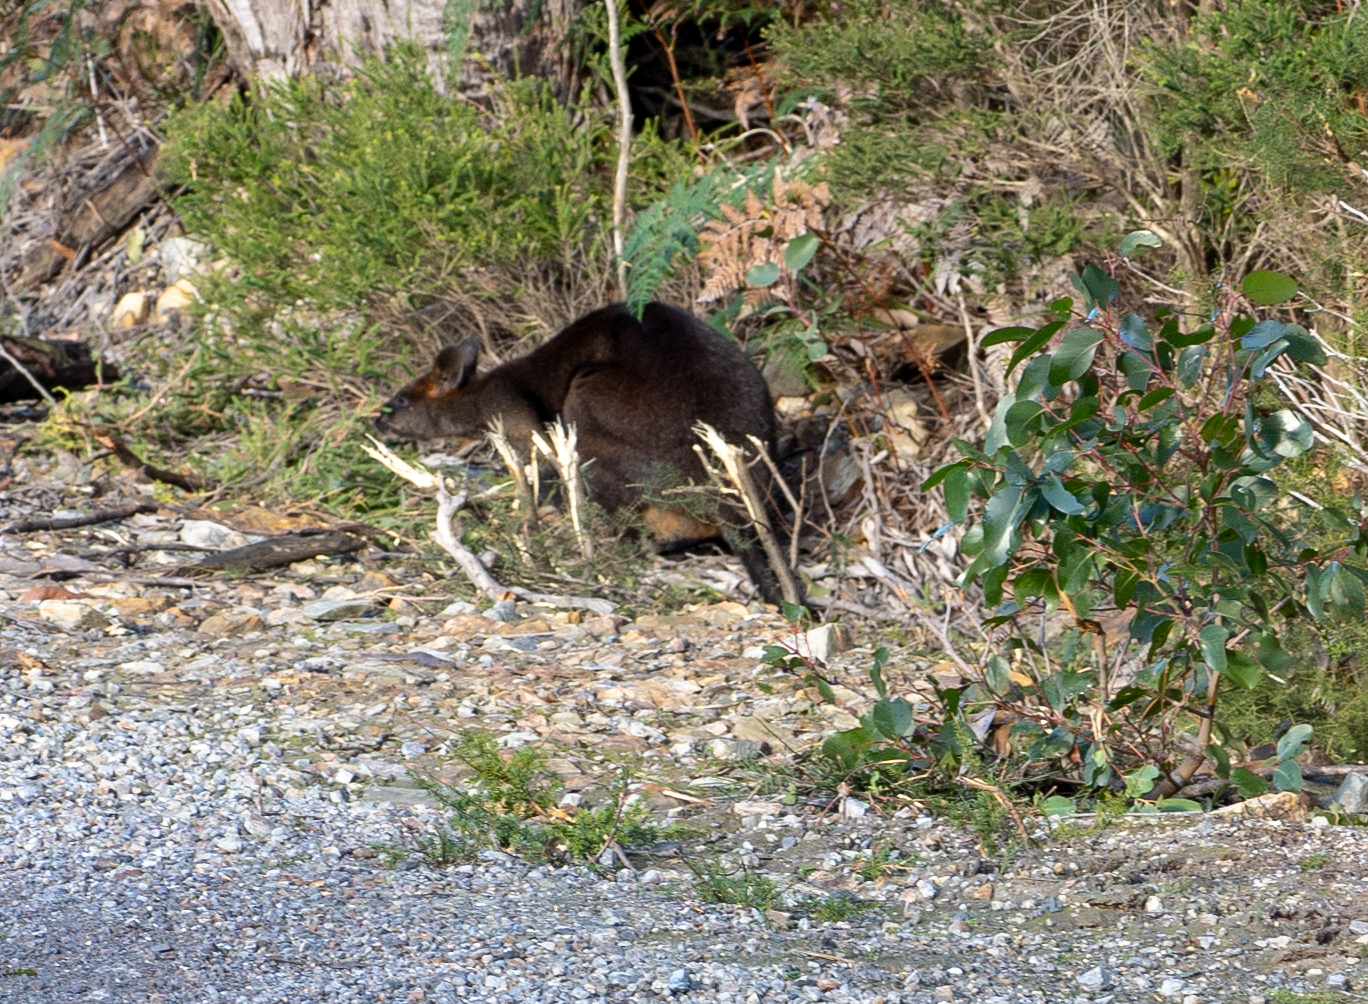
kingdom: Animalia
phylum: Chordata
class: Mammalia
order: Diprotodontia
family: Macropodidae
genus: Wallabia
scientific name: Wallabia bicolor
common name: Swamp wallaby
